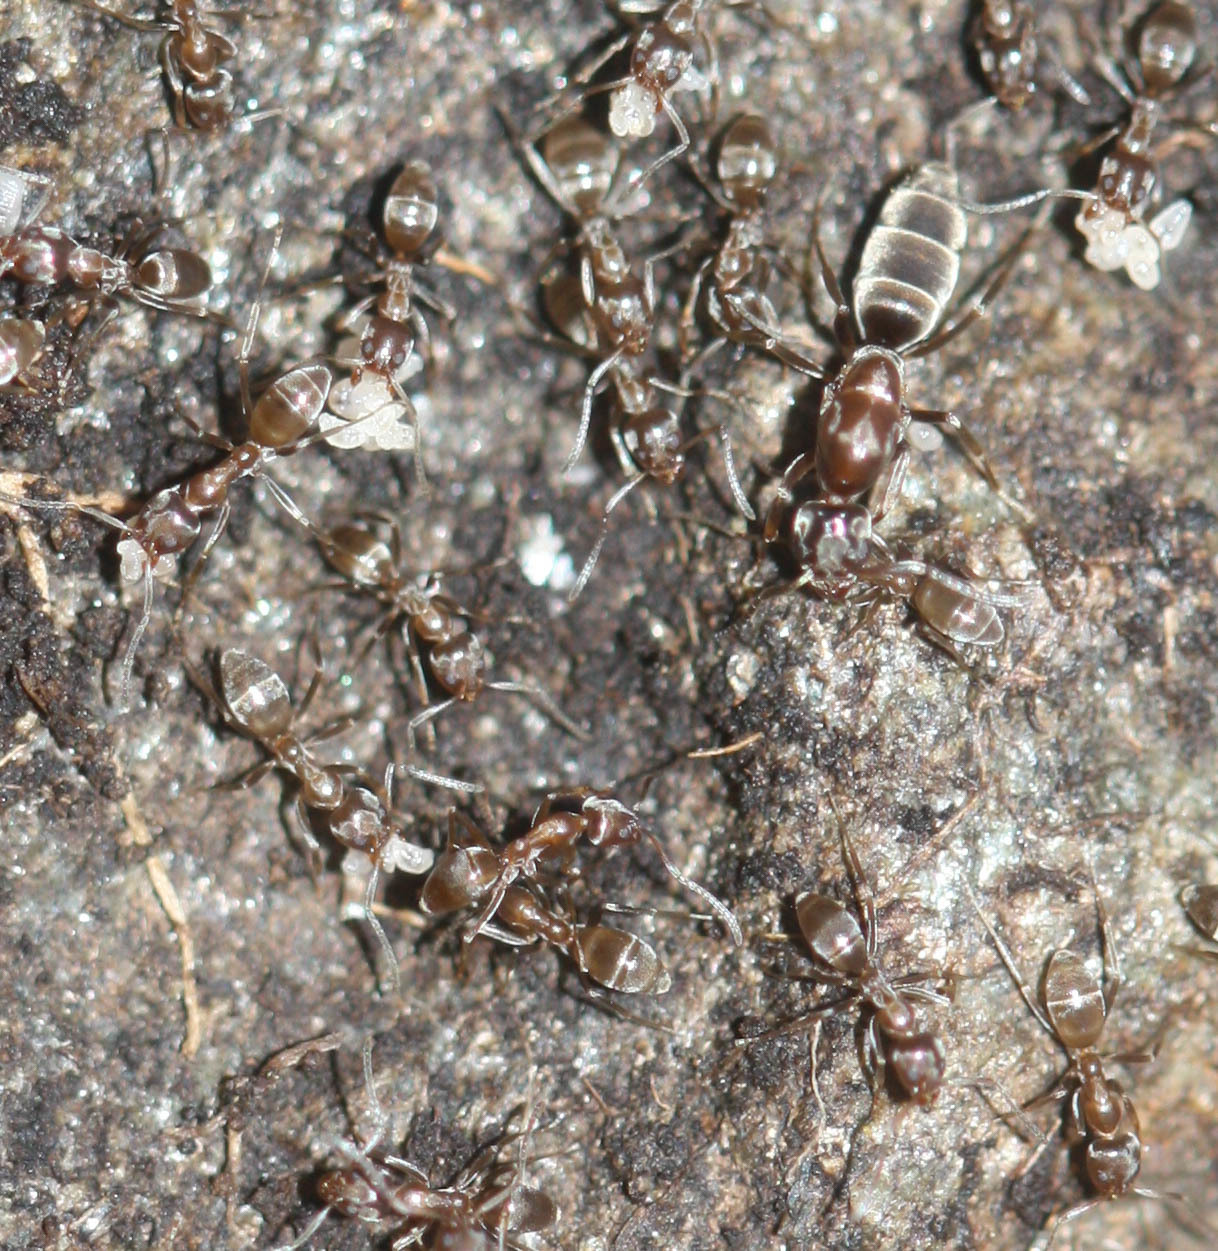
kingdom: Animalia
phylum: Arthropoda
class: Insecta
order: Hymenoptera
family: Formicidae
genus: Linepithema
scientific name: Linepithema humile
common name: Argentine ant
